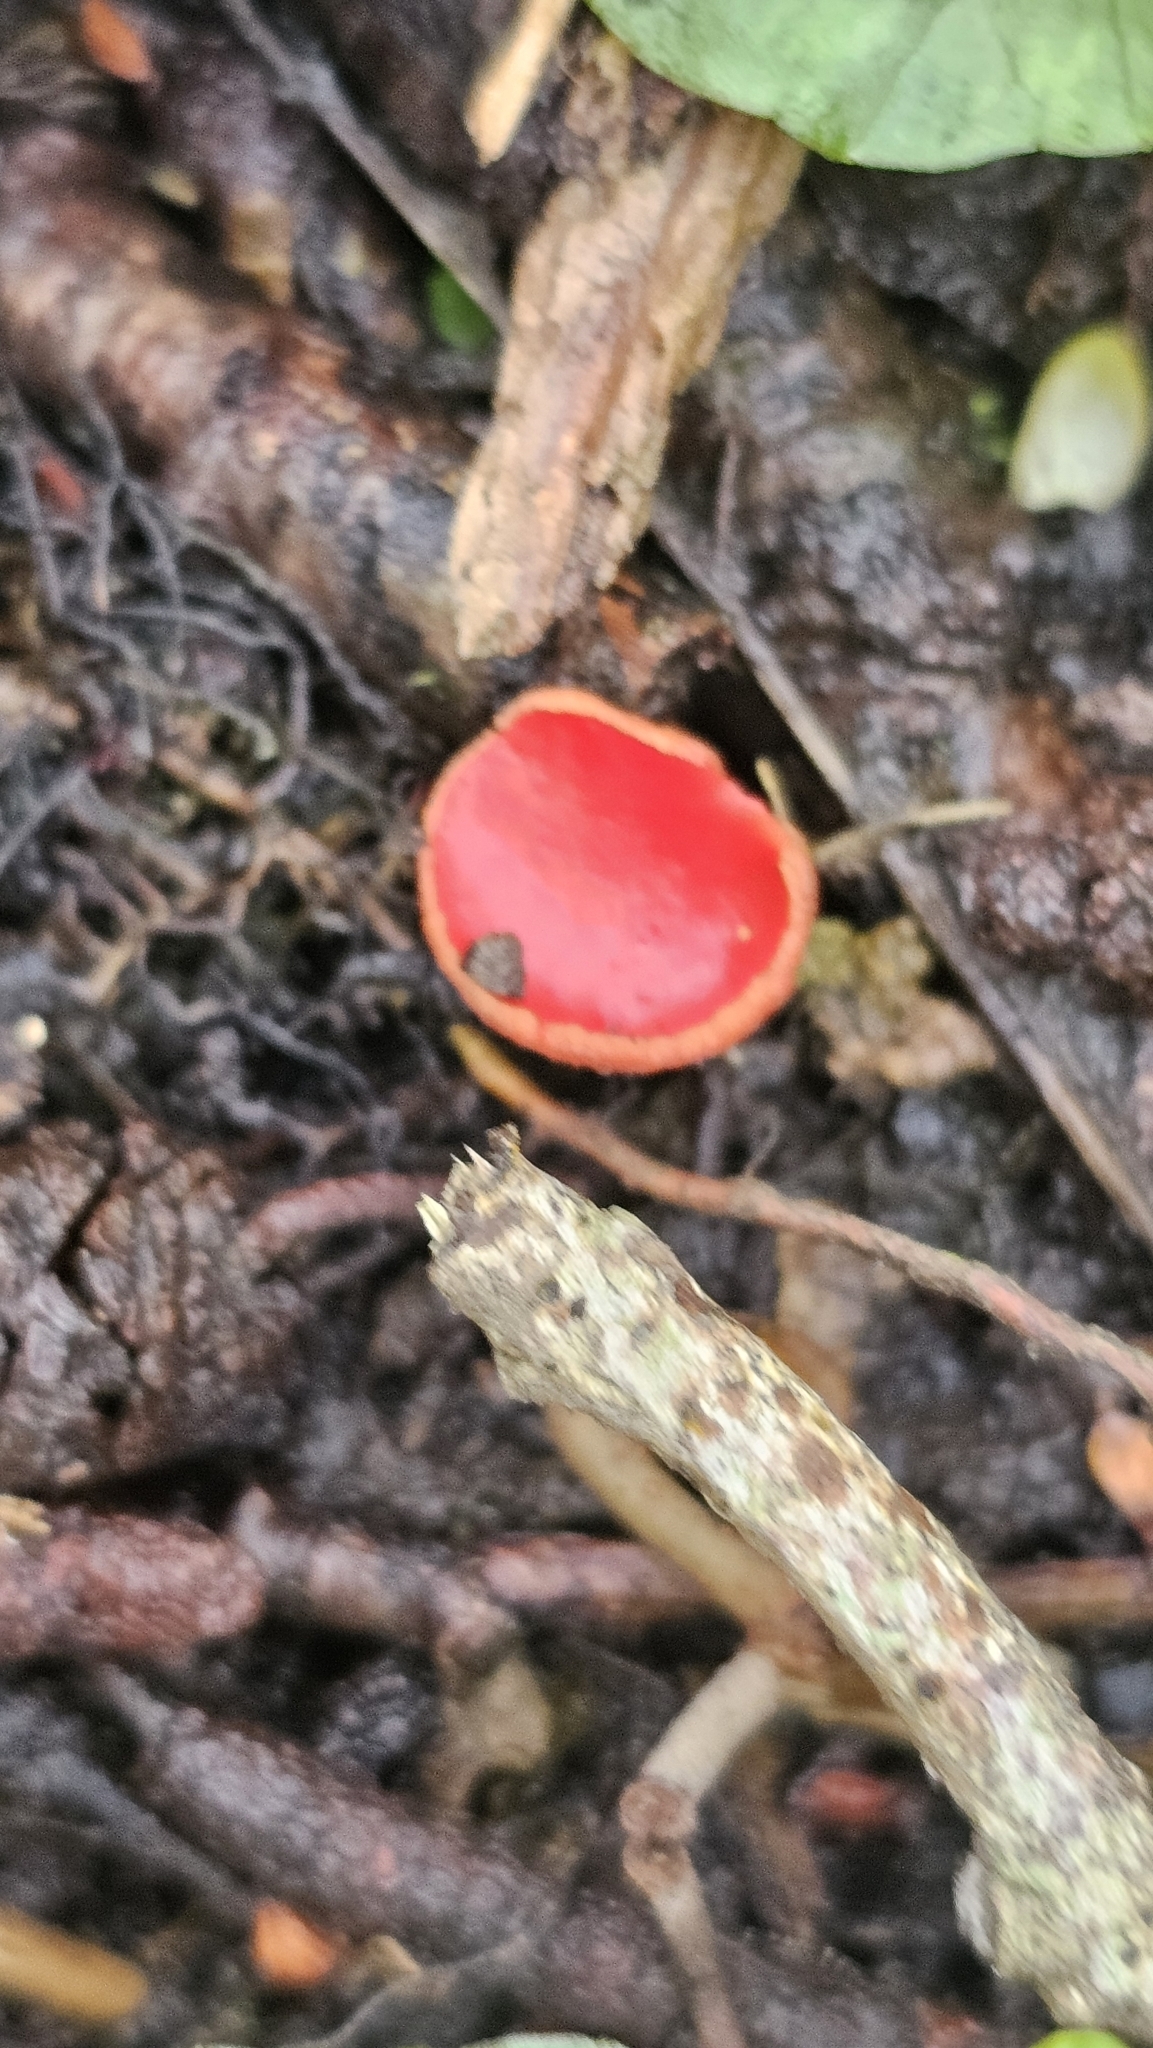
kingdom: Fungi
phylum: Ascomycota
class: Pezizomycetes
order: Pezizales
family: Sarcoscyphaceae
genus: Sarcoscypha
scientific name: Sarcoscypha
